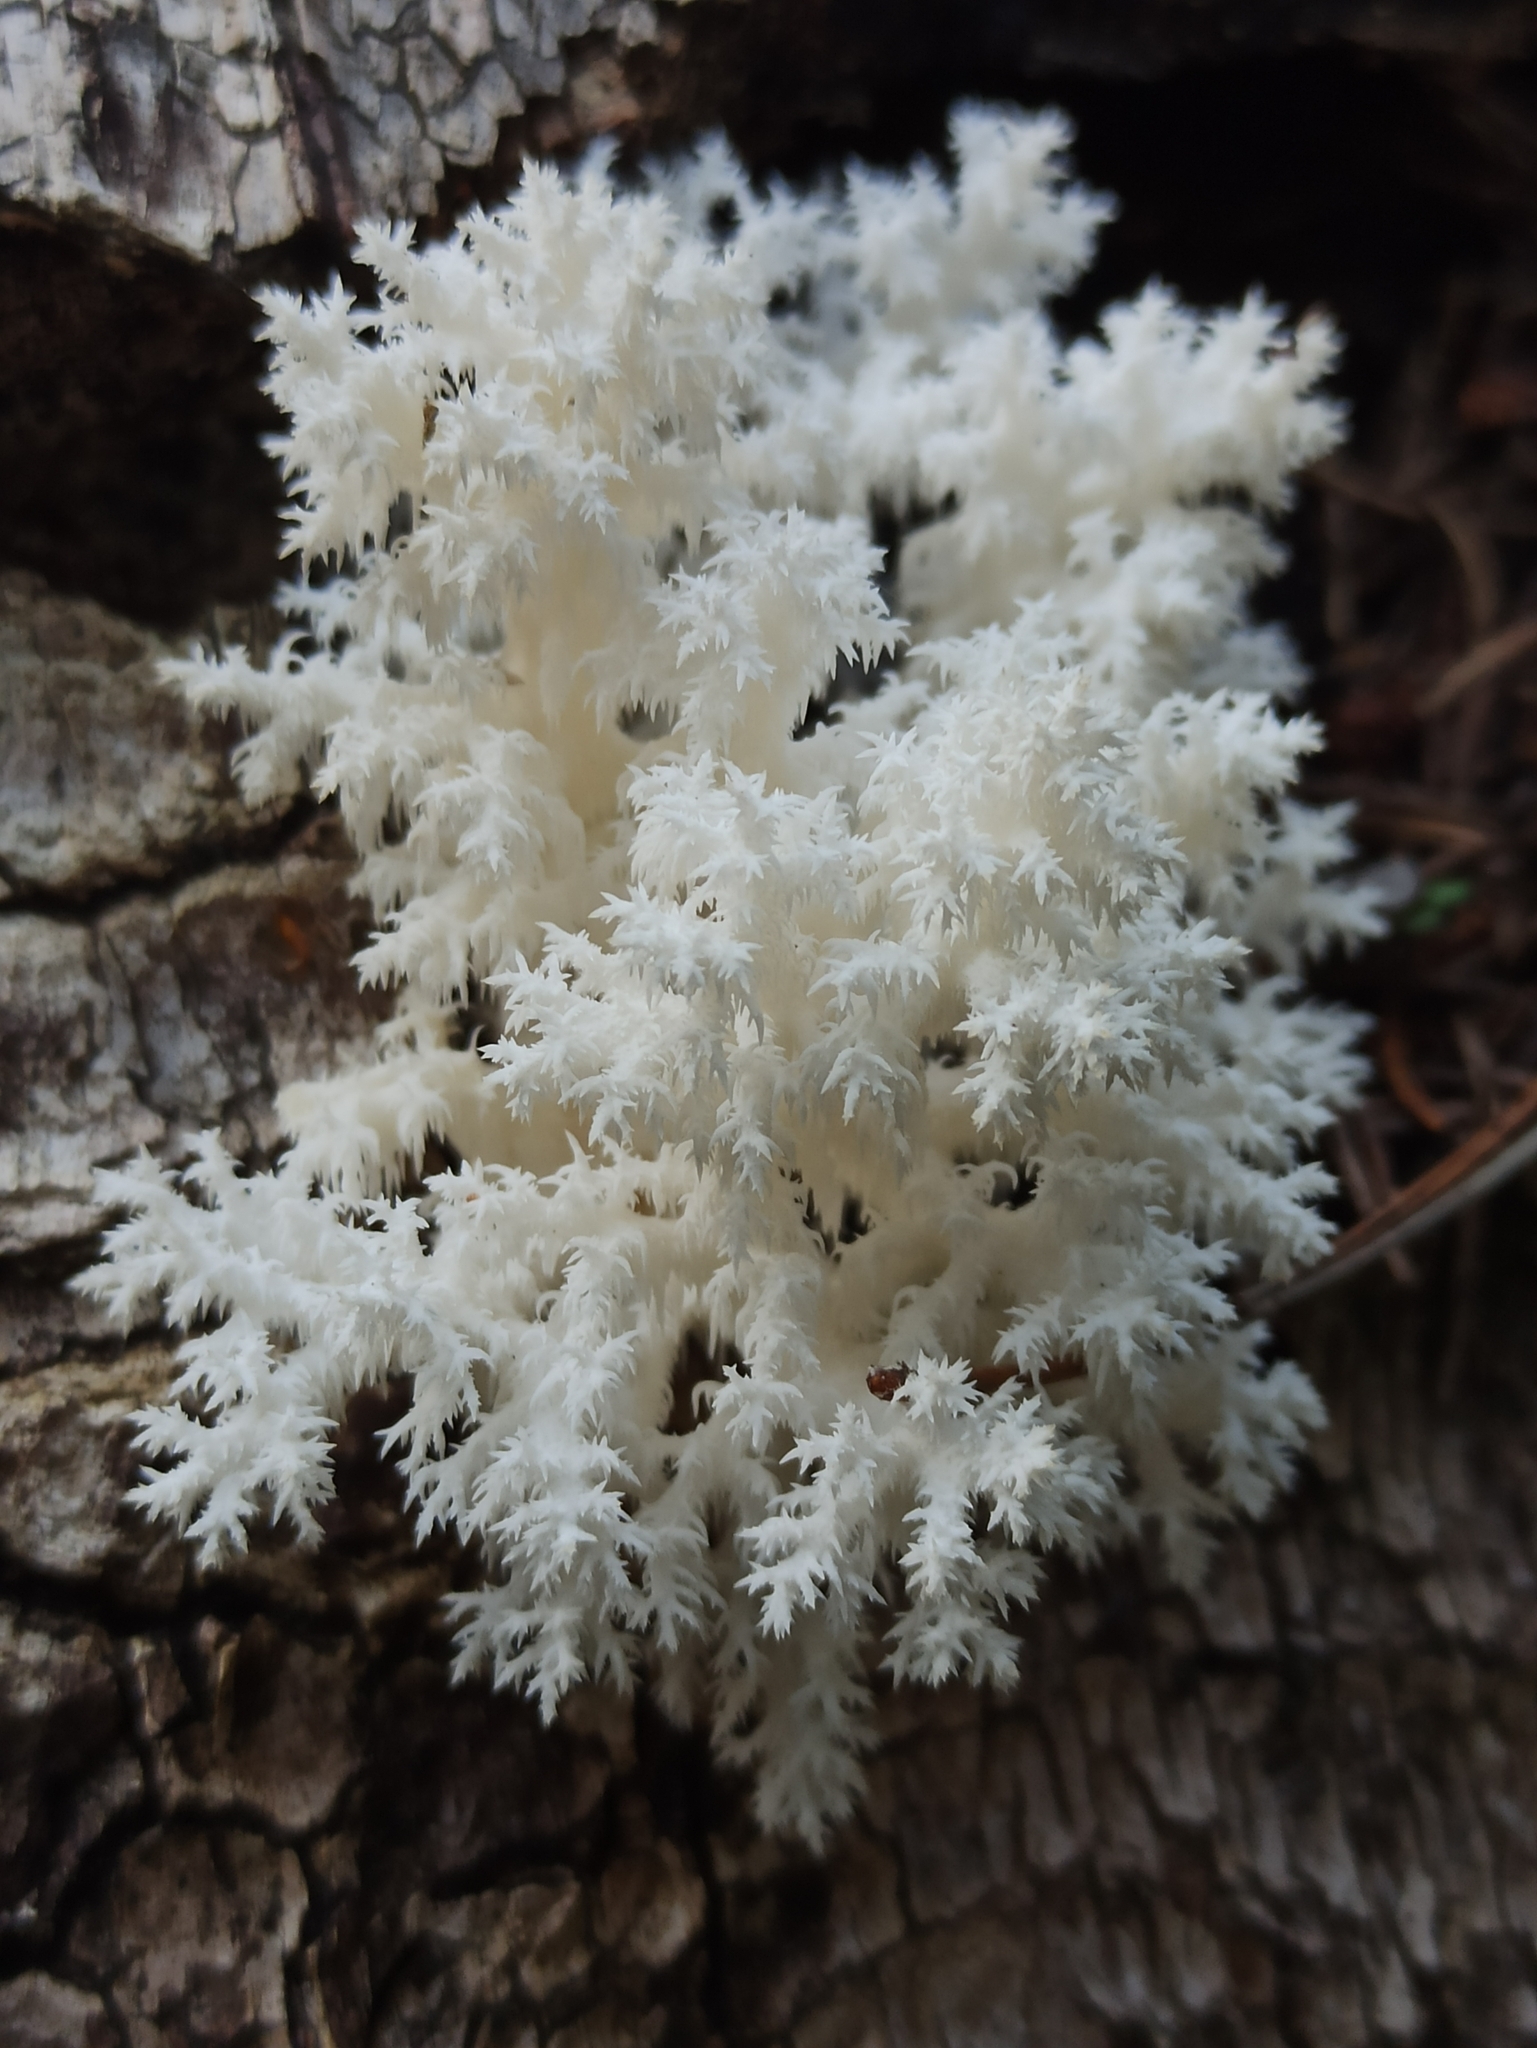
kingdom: Fungi
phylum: Basidiomycota
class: Agaricomycetes
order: Russulales
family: Hericiaceae
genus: Hericium
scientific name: Hericium coralloides
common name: Coral tooth
